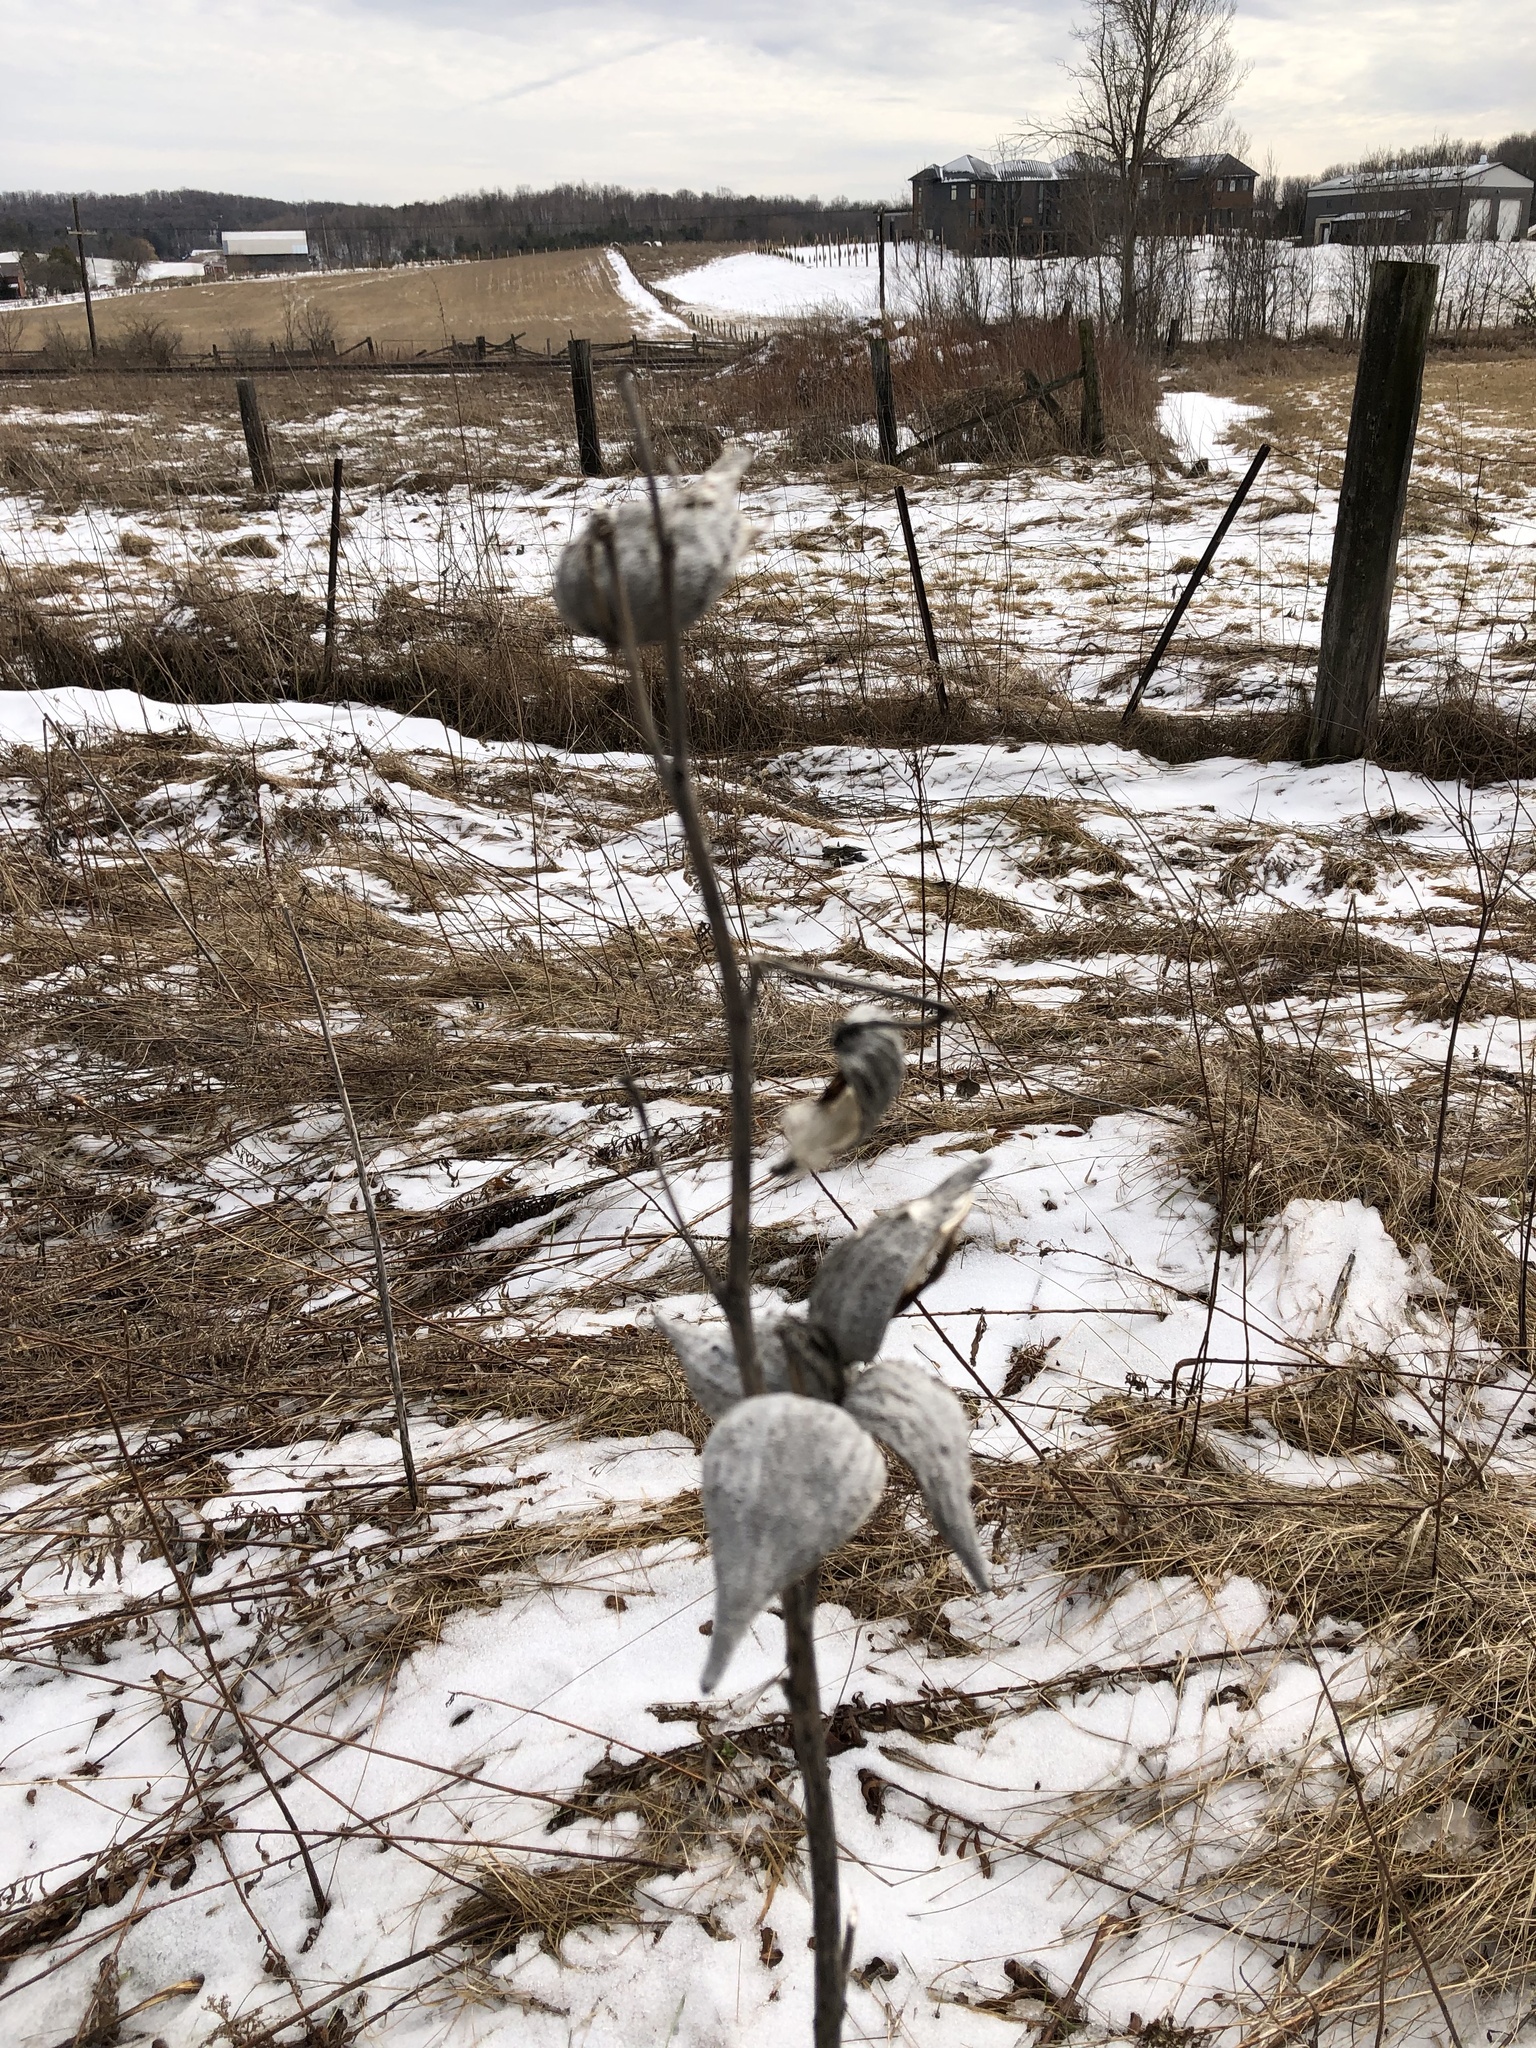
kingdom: Plantae
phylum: Tracheophyta
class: Magnoliopsida
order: Gentianales
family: Apocynaceae
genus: Asclepias
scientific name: Asclepias syriaca
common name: Common milkweed
